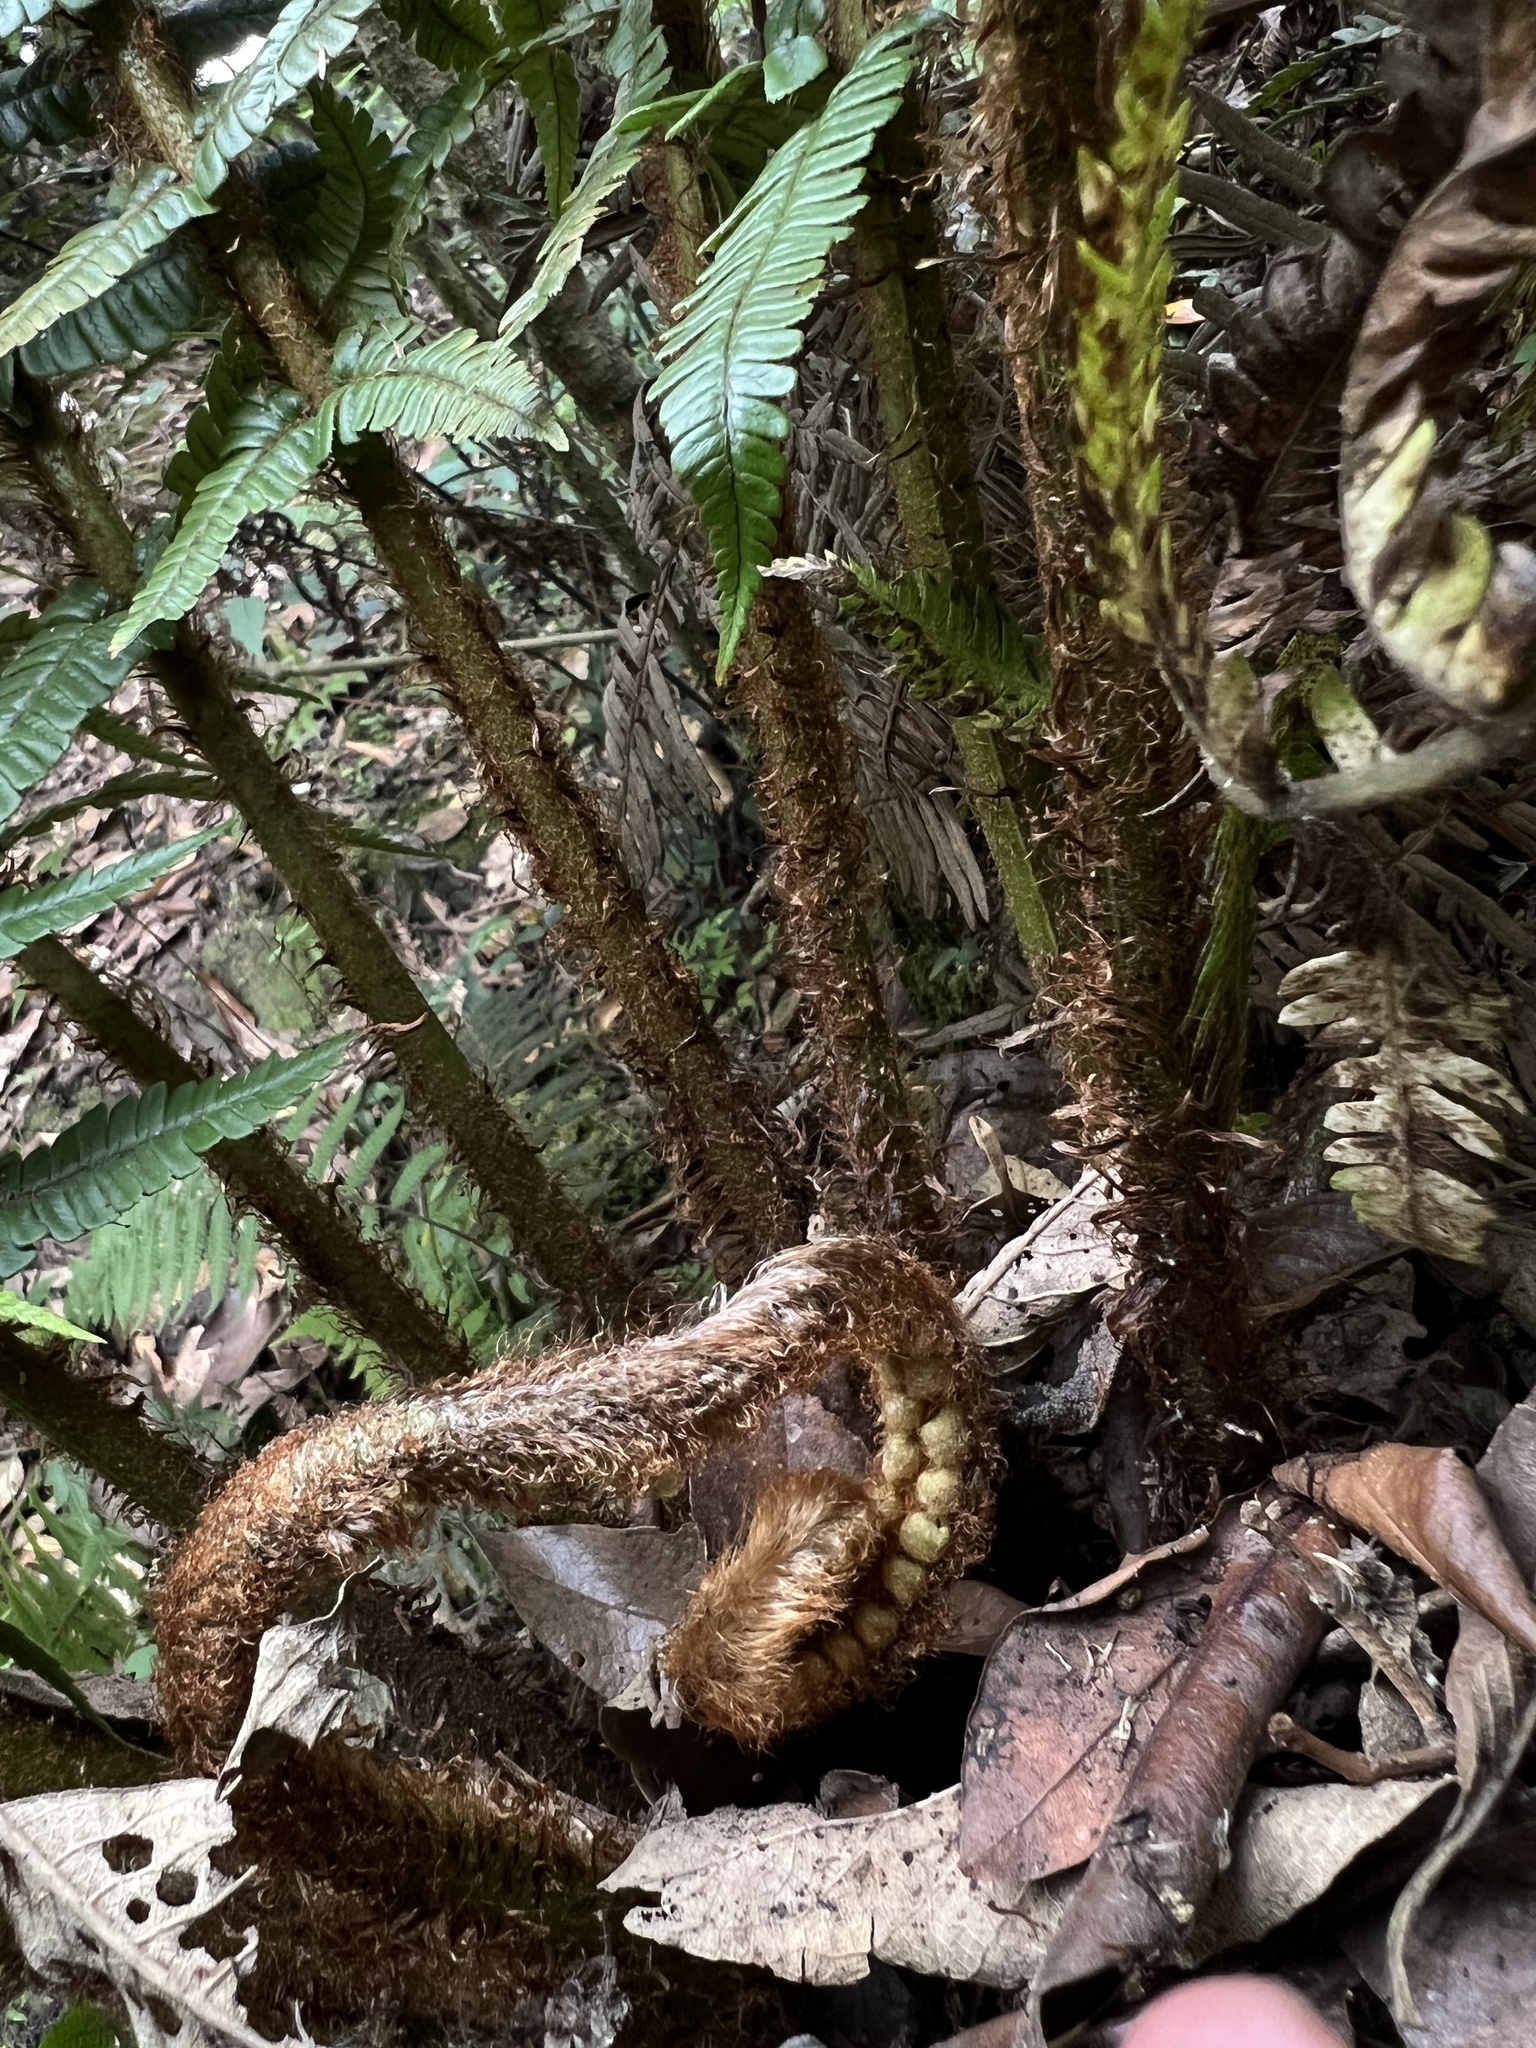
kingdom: Plantae
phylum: Tracheophyta
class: Polypodiopsida
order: Polypodiales
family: Dryopteridaceae
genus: Dryopteris
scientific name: Dryopteris wallichiana
